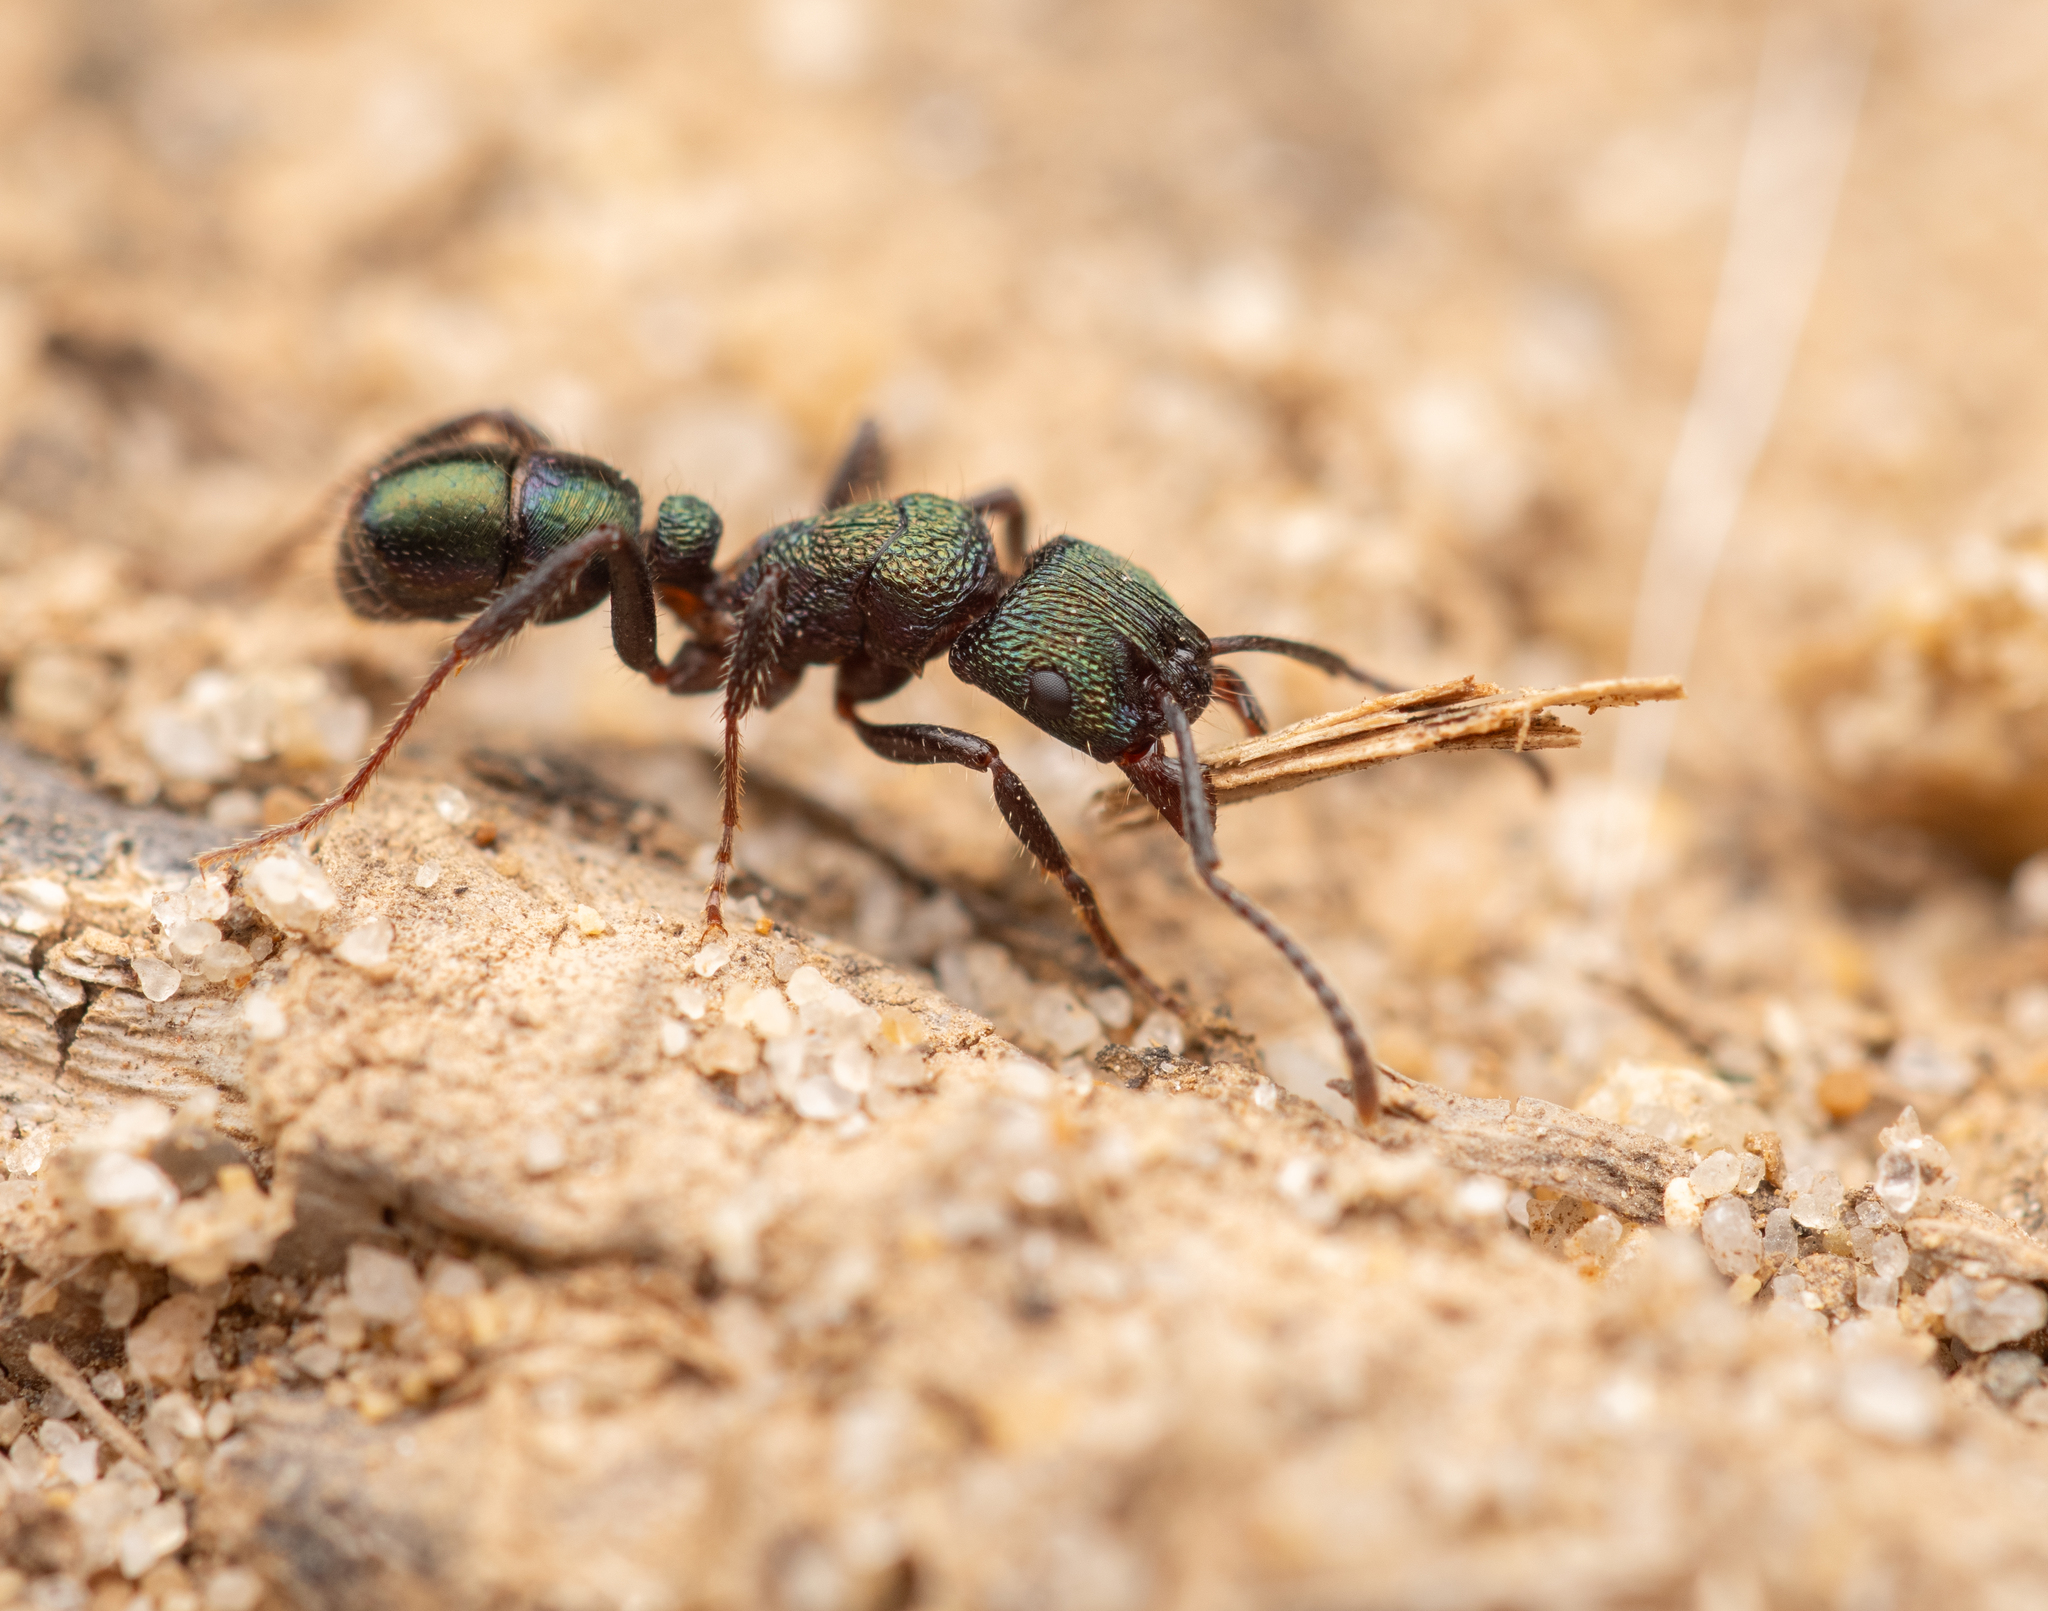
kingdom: Animalia
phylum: Arthropoda
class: Insecta
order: Hymenoptera
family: Formicidae
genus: Rhytidoponera
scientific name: Rhytidoponera metallica
